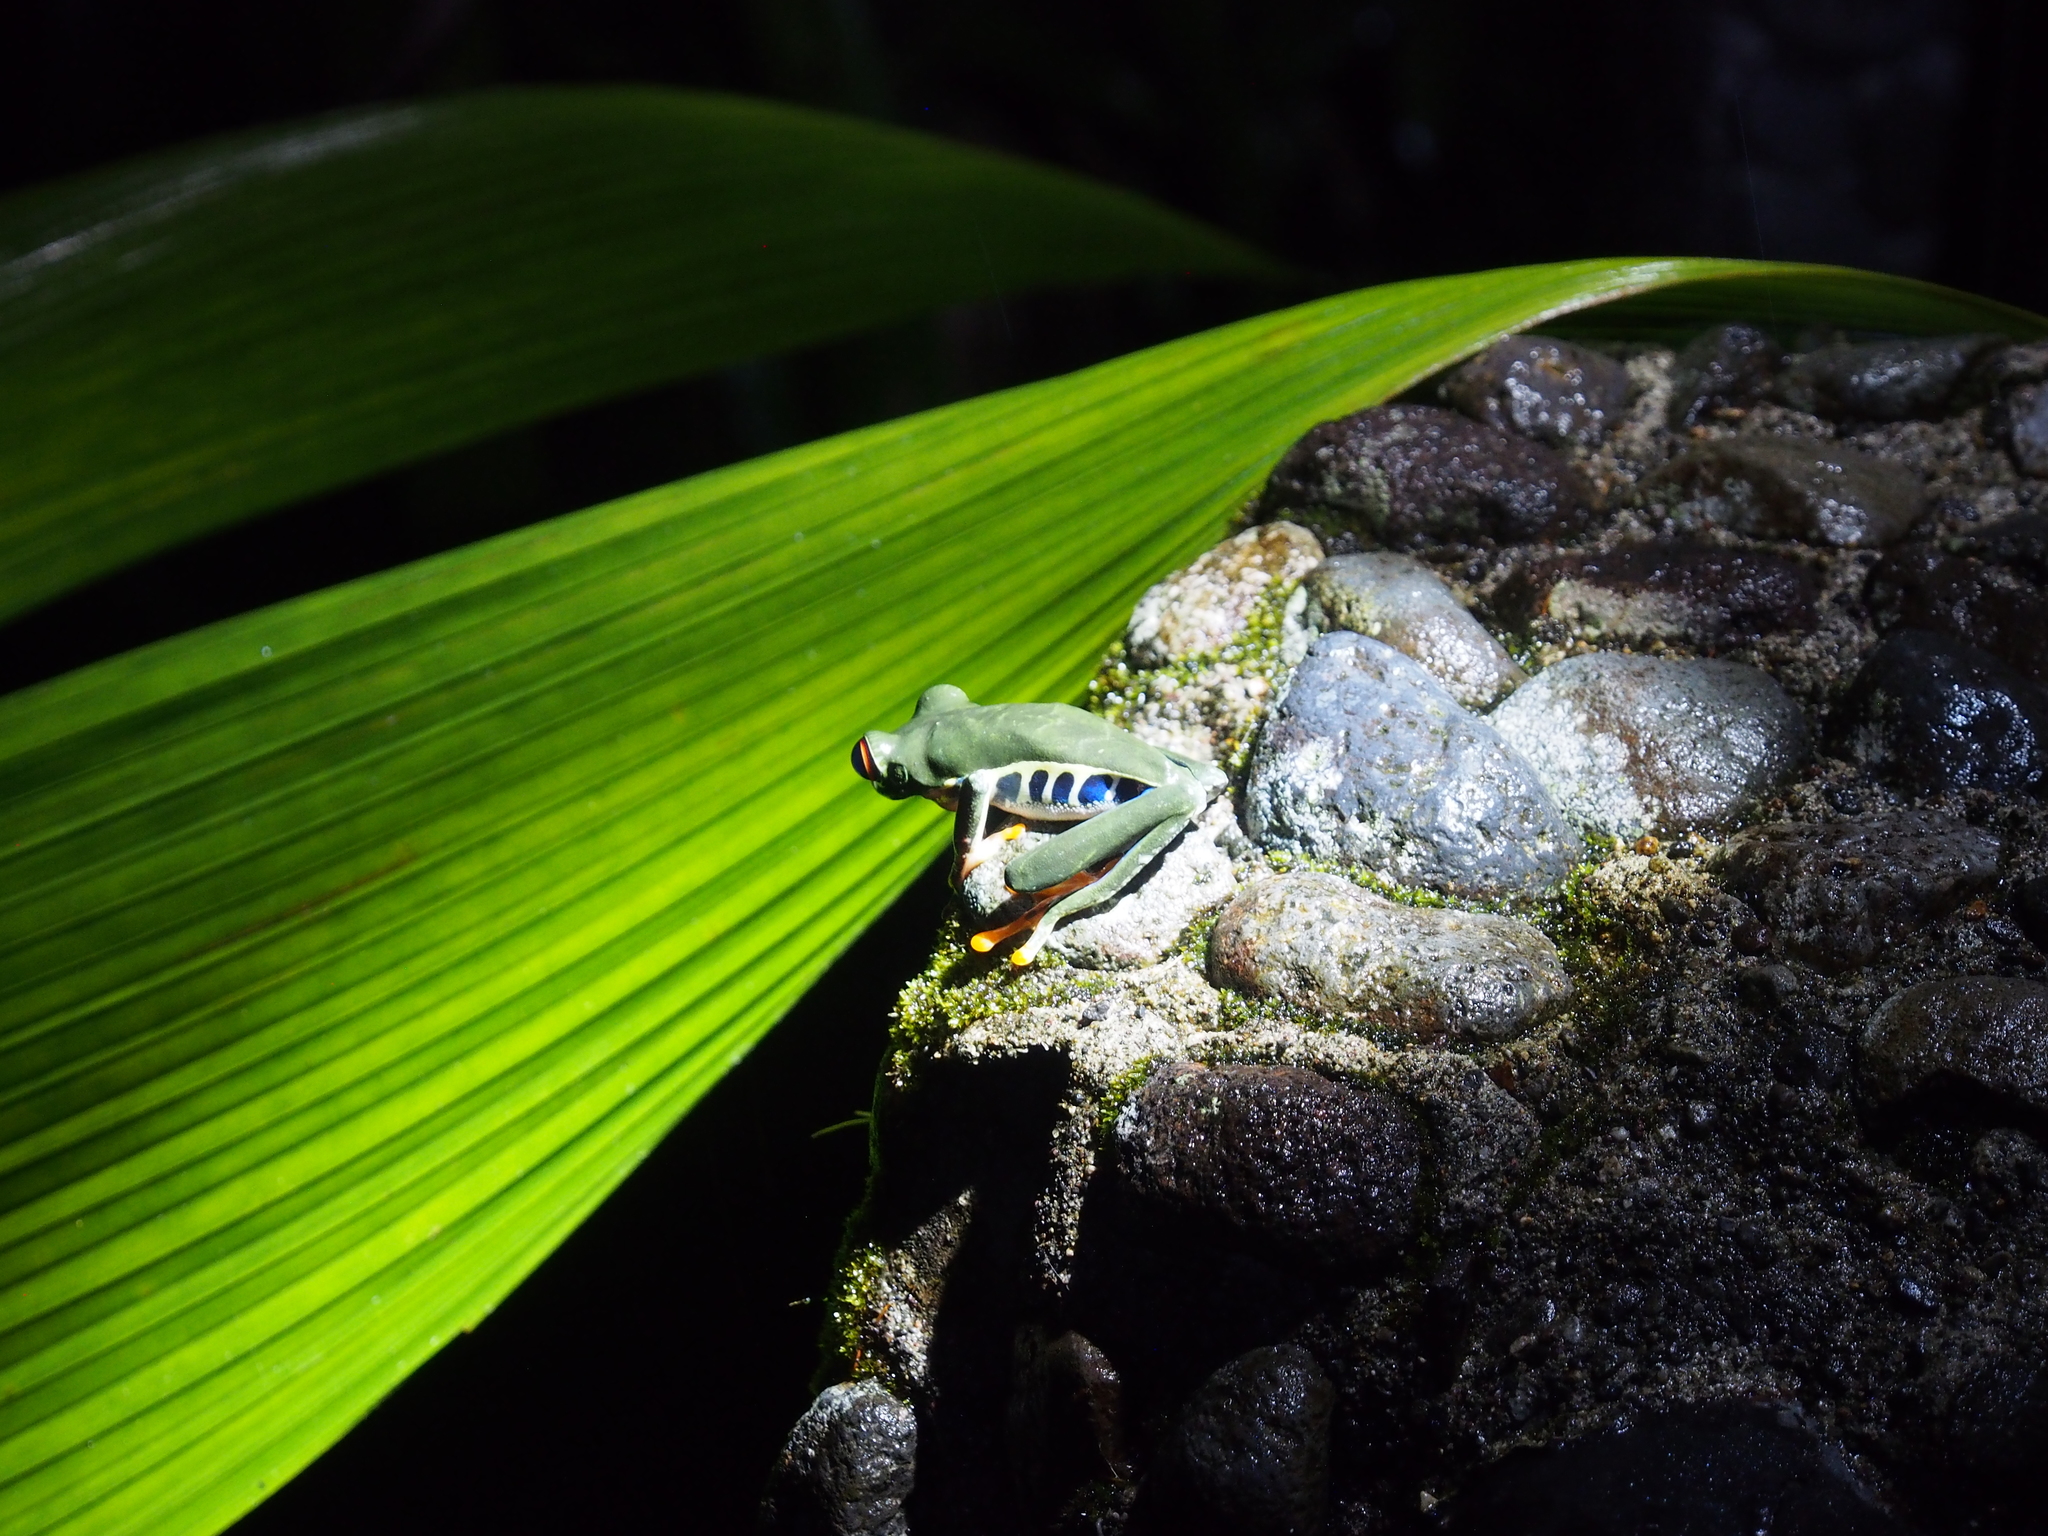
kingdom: Animalia
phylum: Chordata
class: Amphibia
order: Anura
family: Phyllomedusidae
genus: Agalychnis
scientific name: Agalychnis callidryas
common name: Red-eyed treefrog
